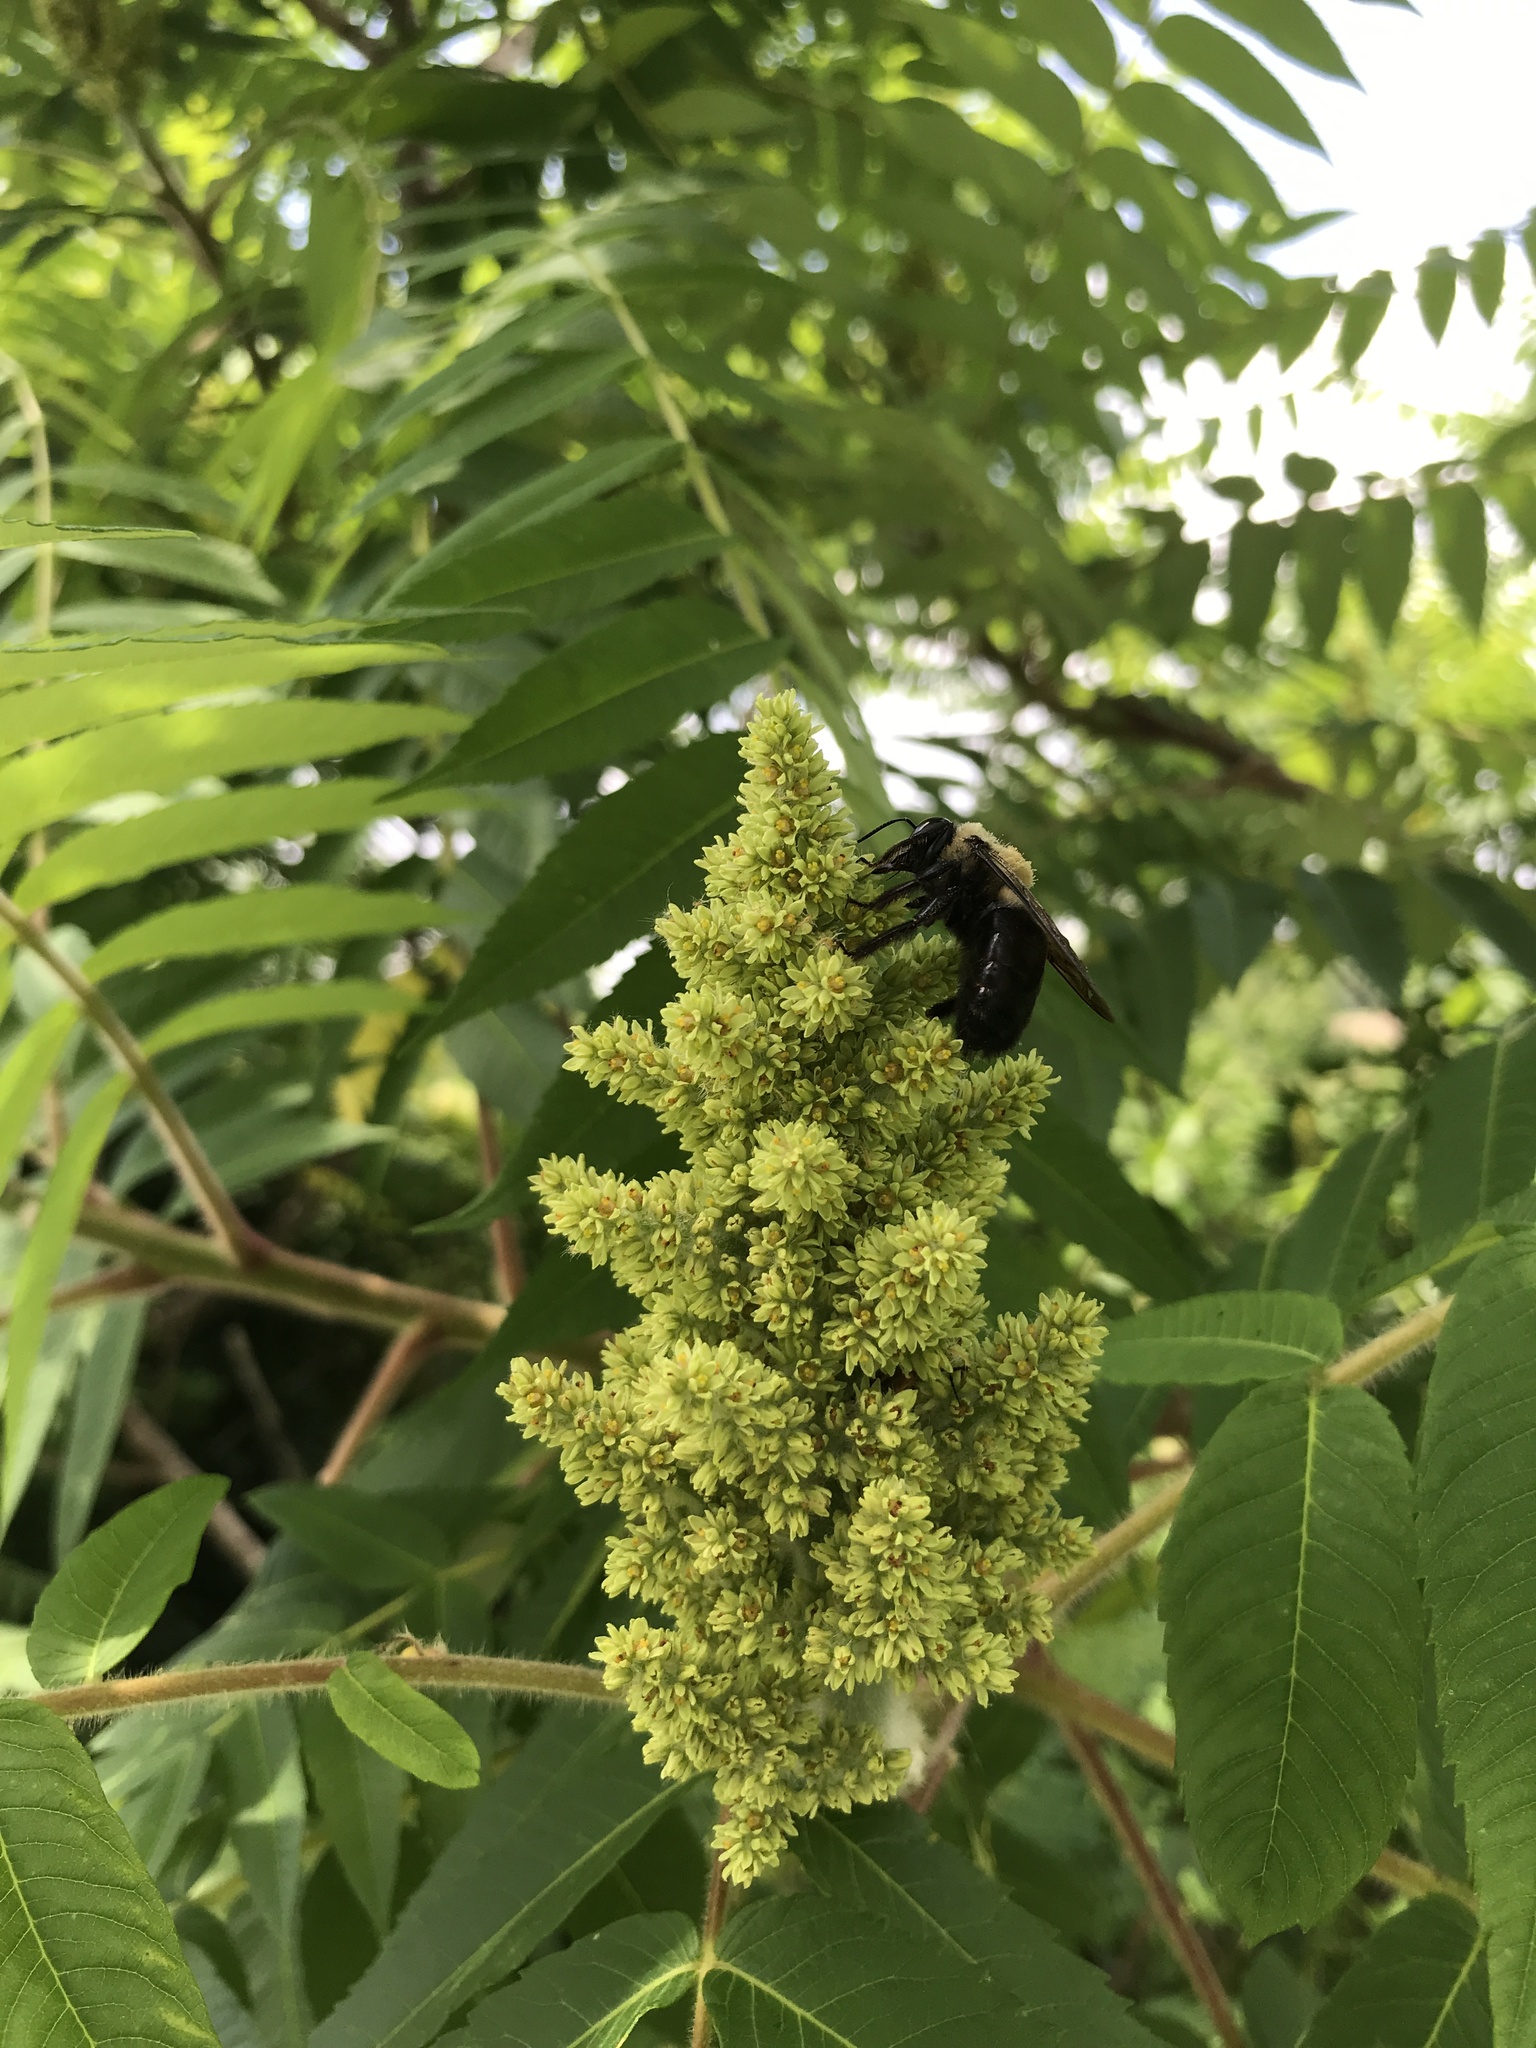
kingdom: Animalia
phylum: Arthropoda
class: Insecta
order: Hymenoptera
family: Apidae
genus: Xylocopa
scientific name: Xylocopa virginica
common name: Carpenter bee
